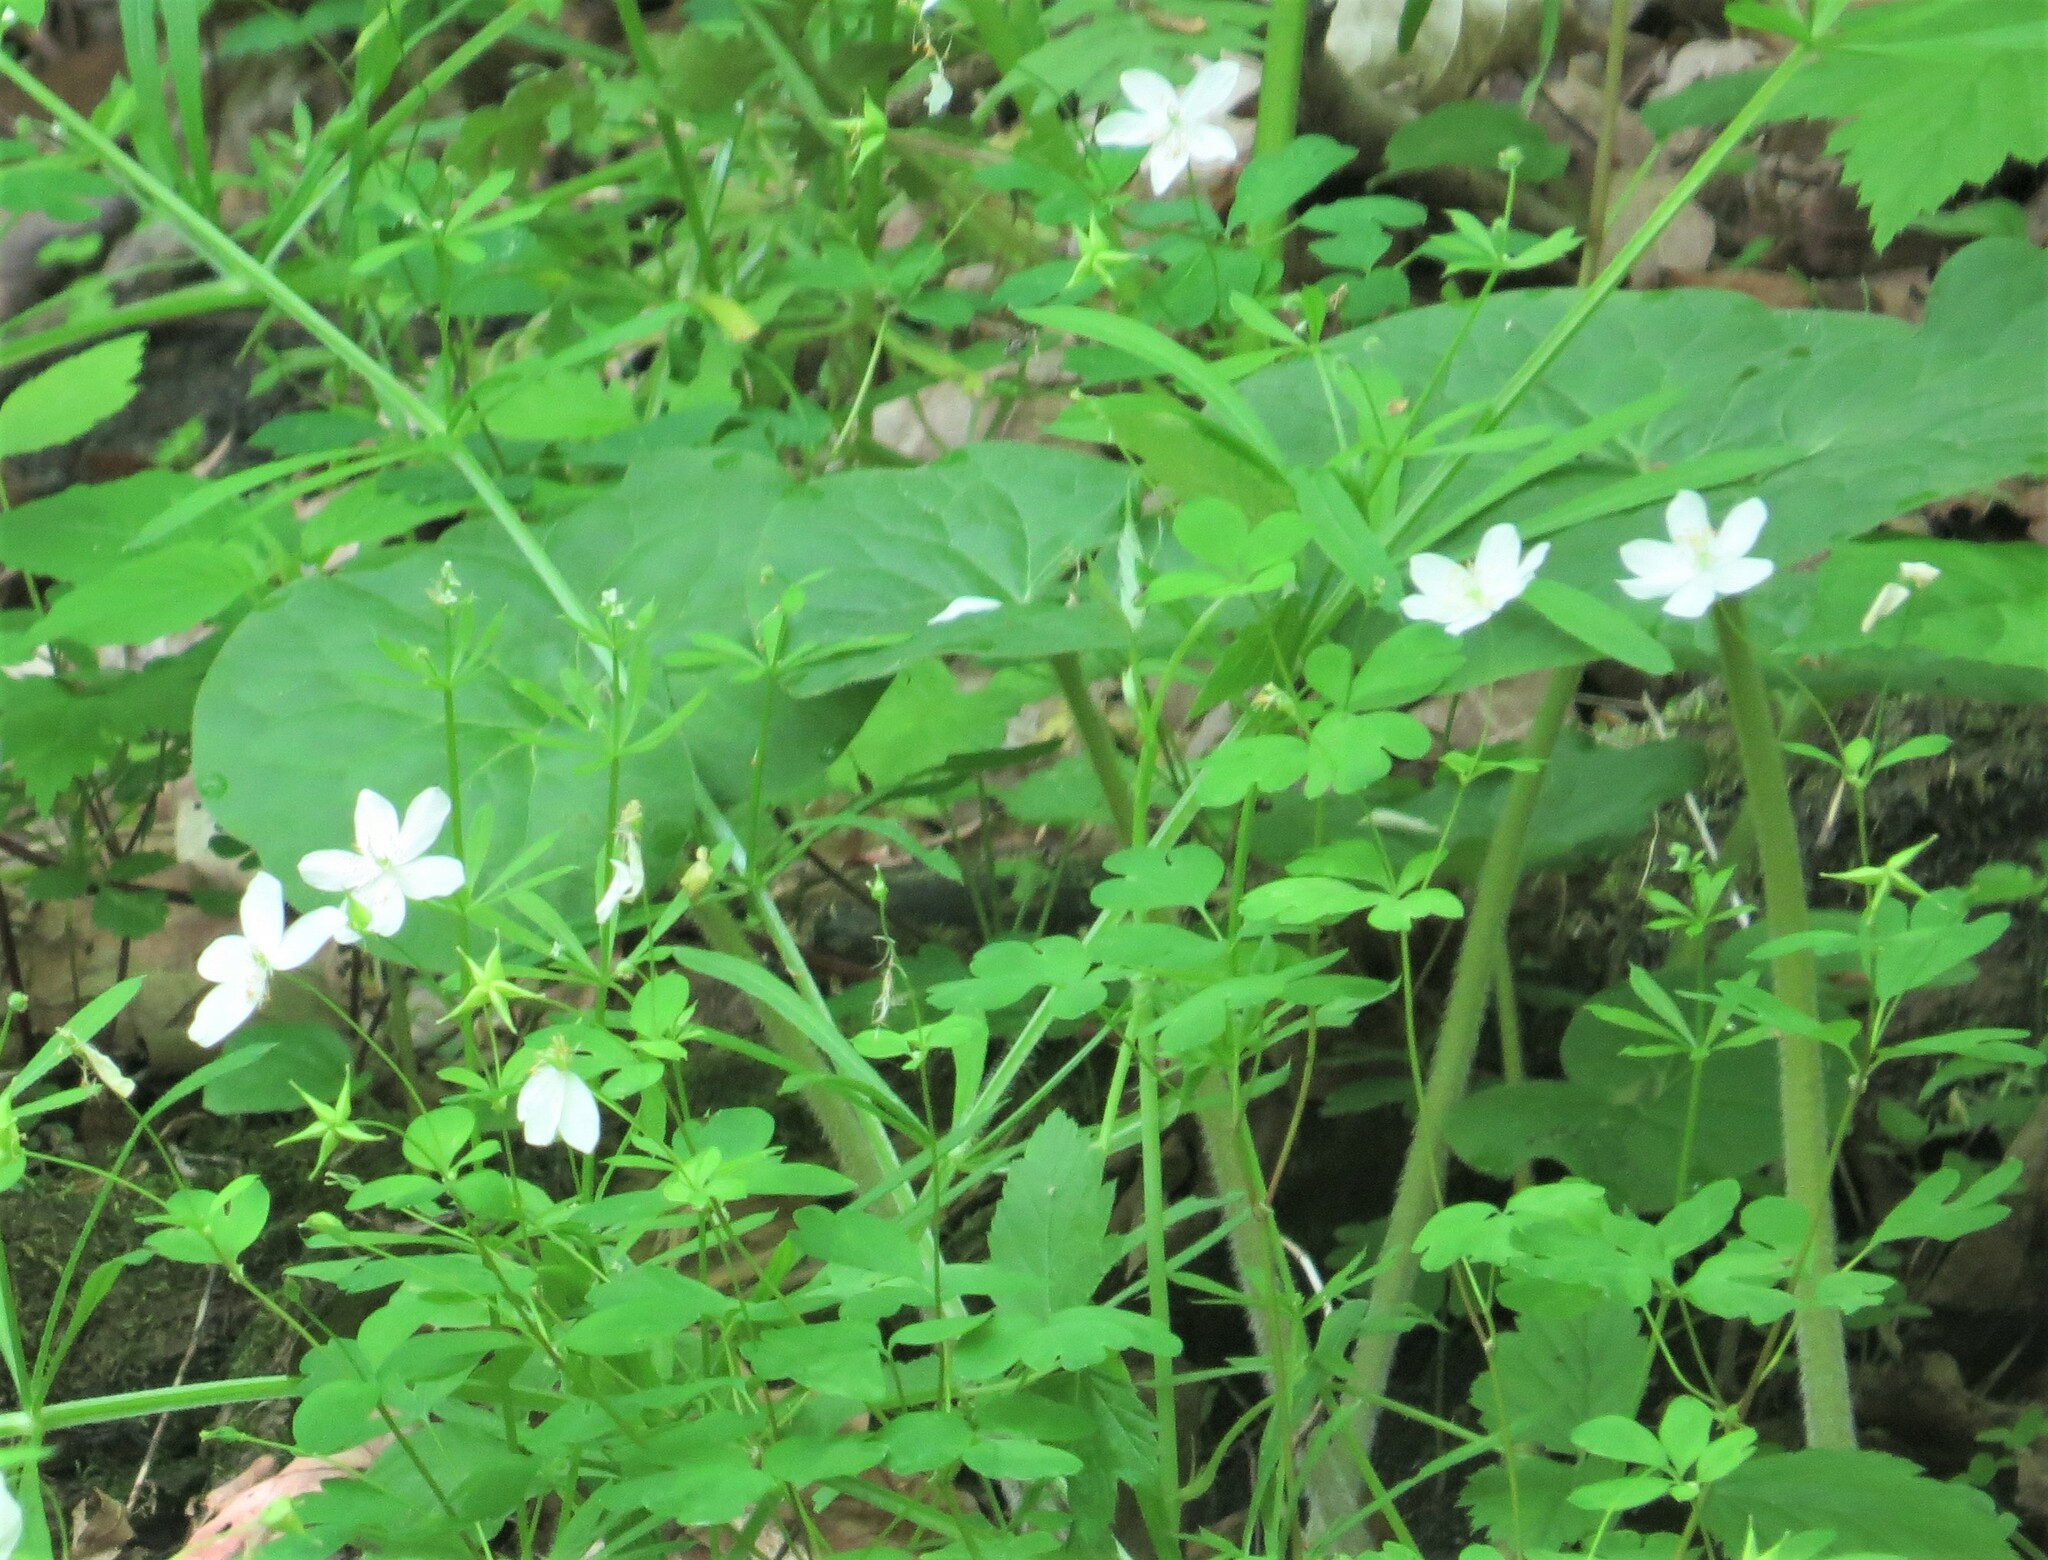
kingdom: Plantae
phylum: Tracheophyta
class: Magnoliopsida
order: Ranunculales
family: Ranunculaceae
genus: Enemion
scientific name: Enemion biternatum
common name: Eastern false rue-anemone
